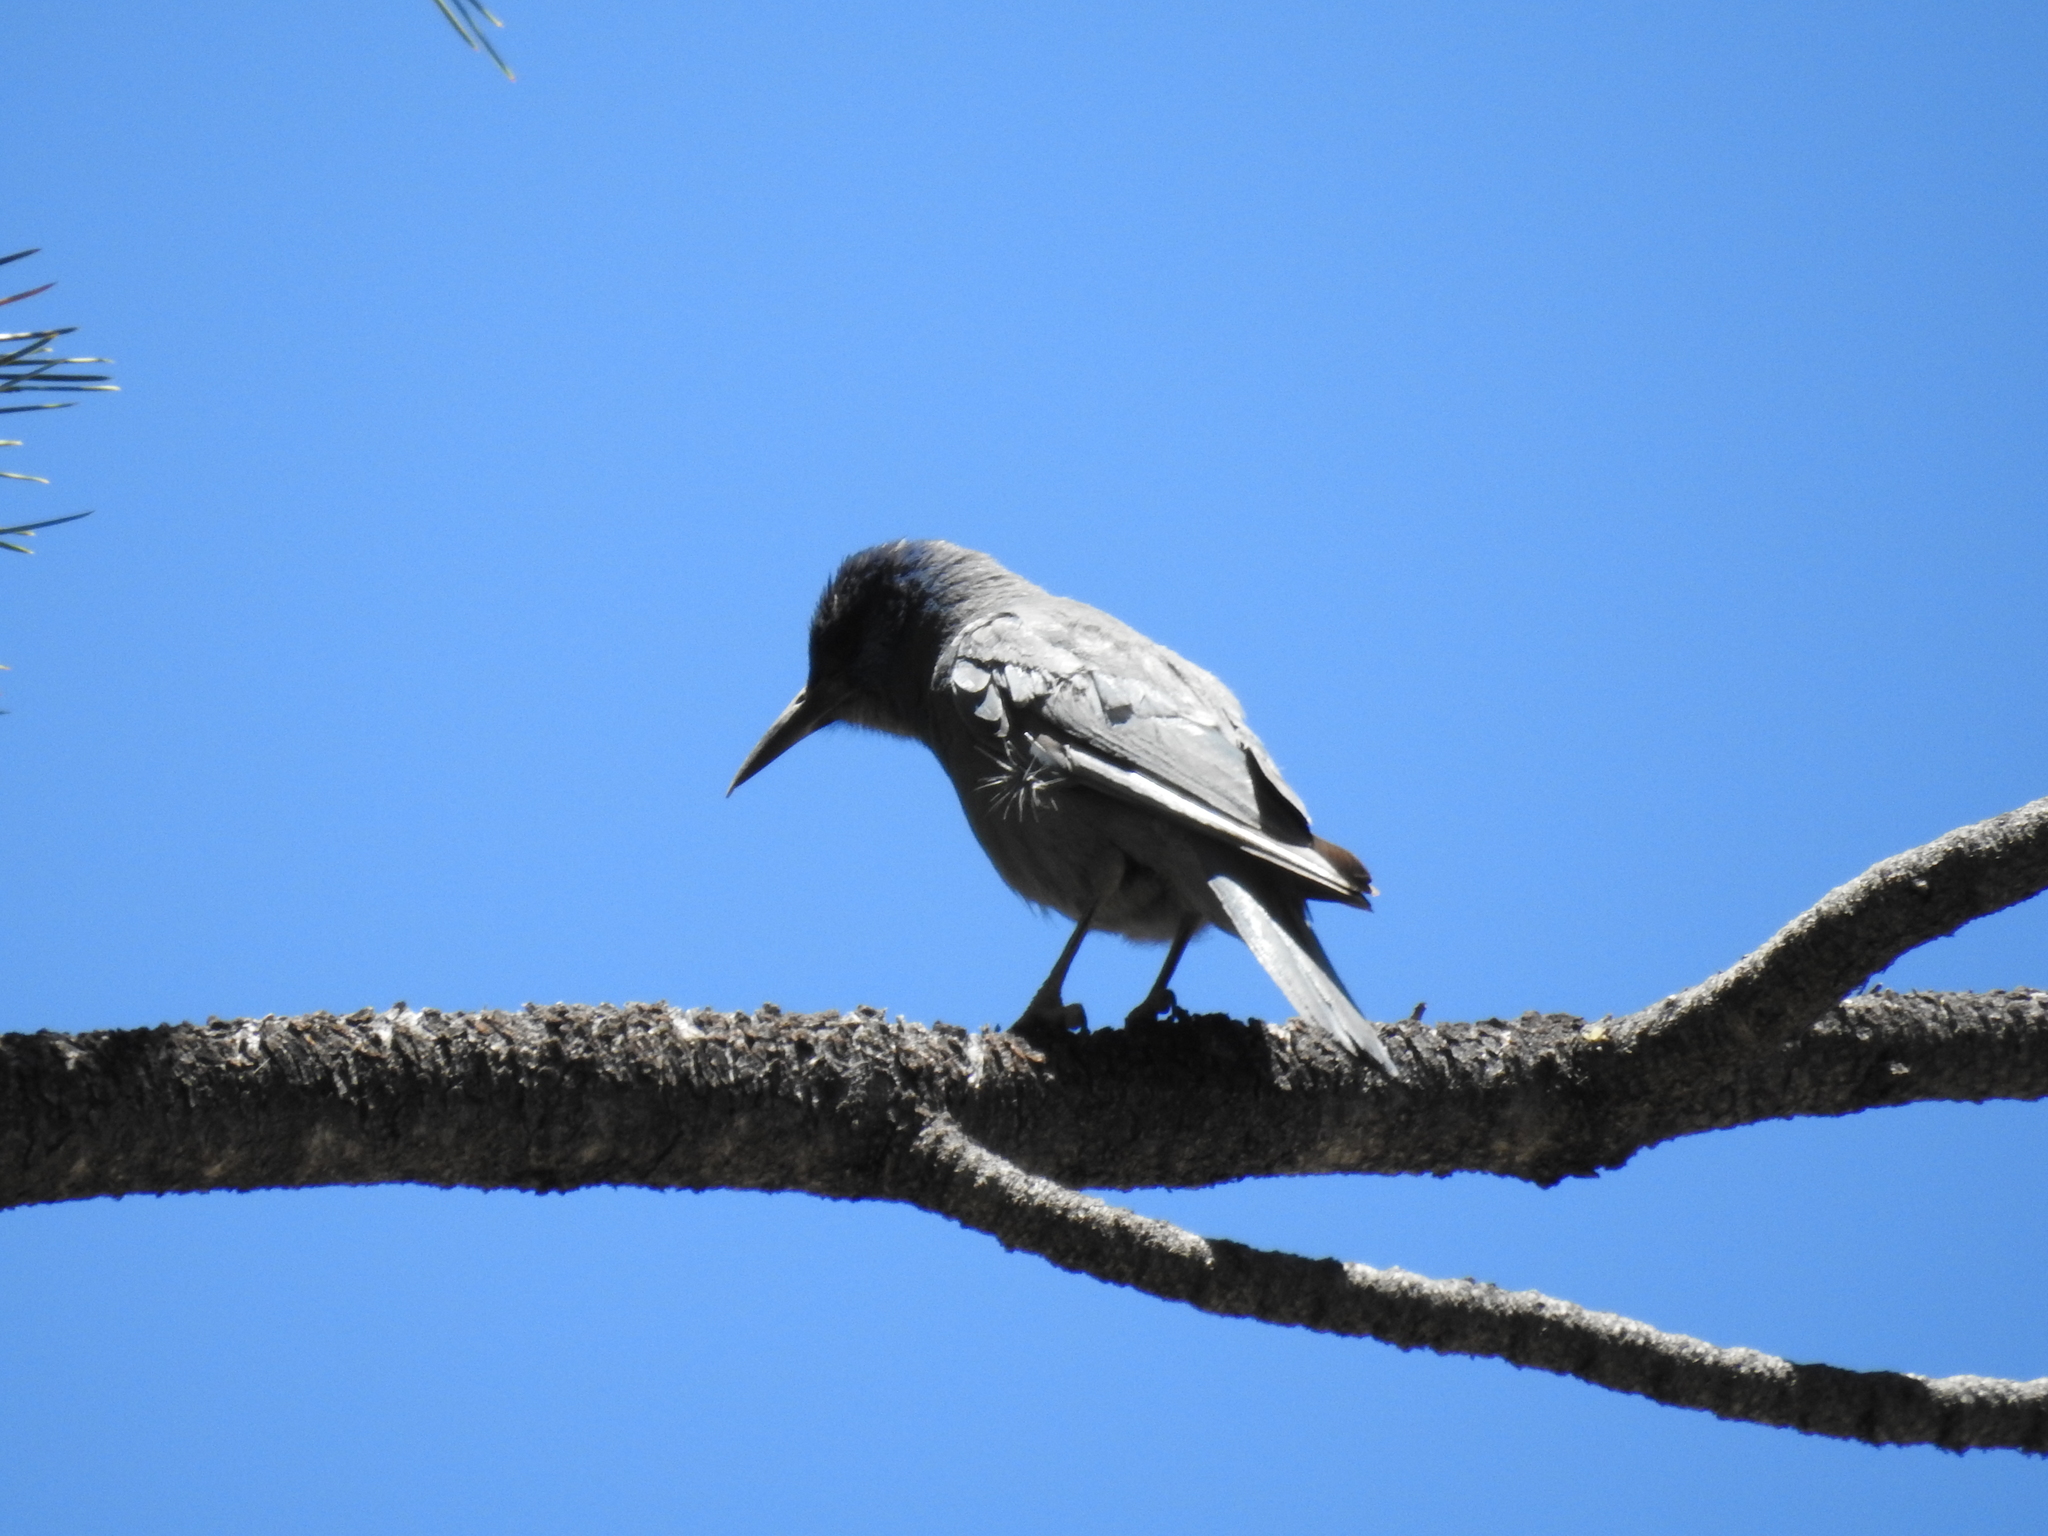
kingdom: Animalia
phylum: Chordata
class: Aves
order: Passeriformes
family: Corvidae
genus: Gymnorhinus
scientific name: Gymnorhinus cyanocephalus
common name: Pinyon jay
